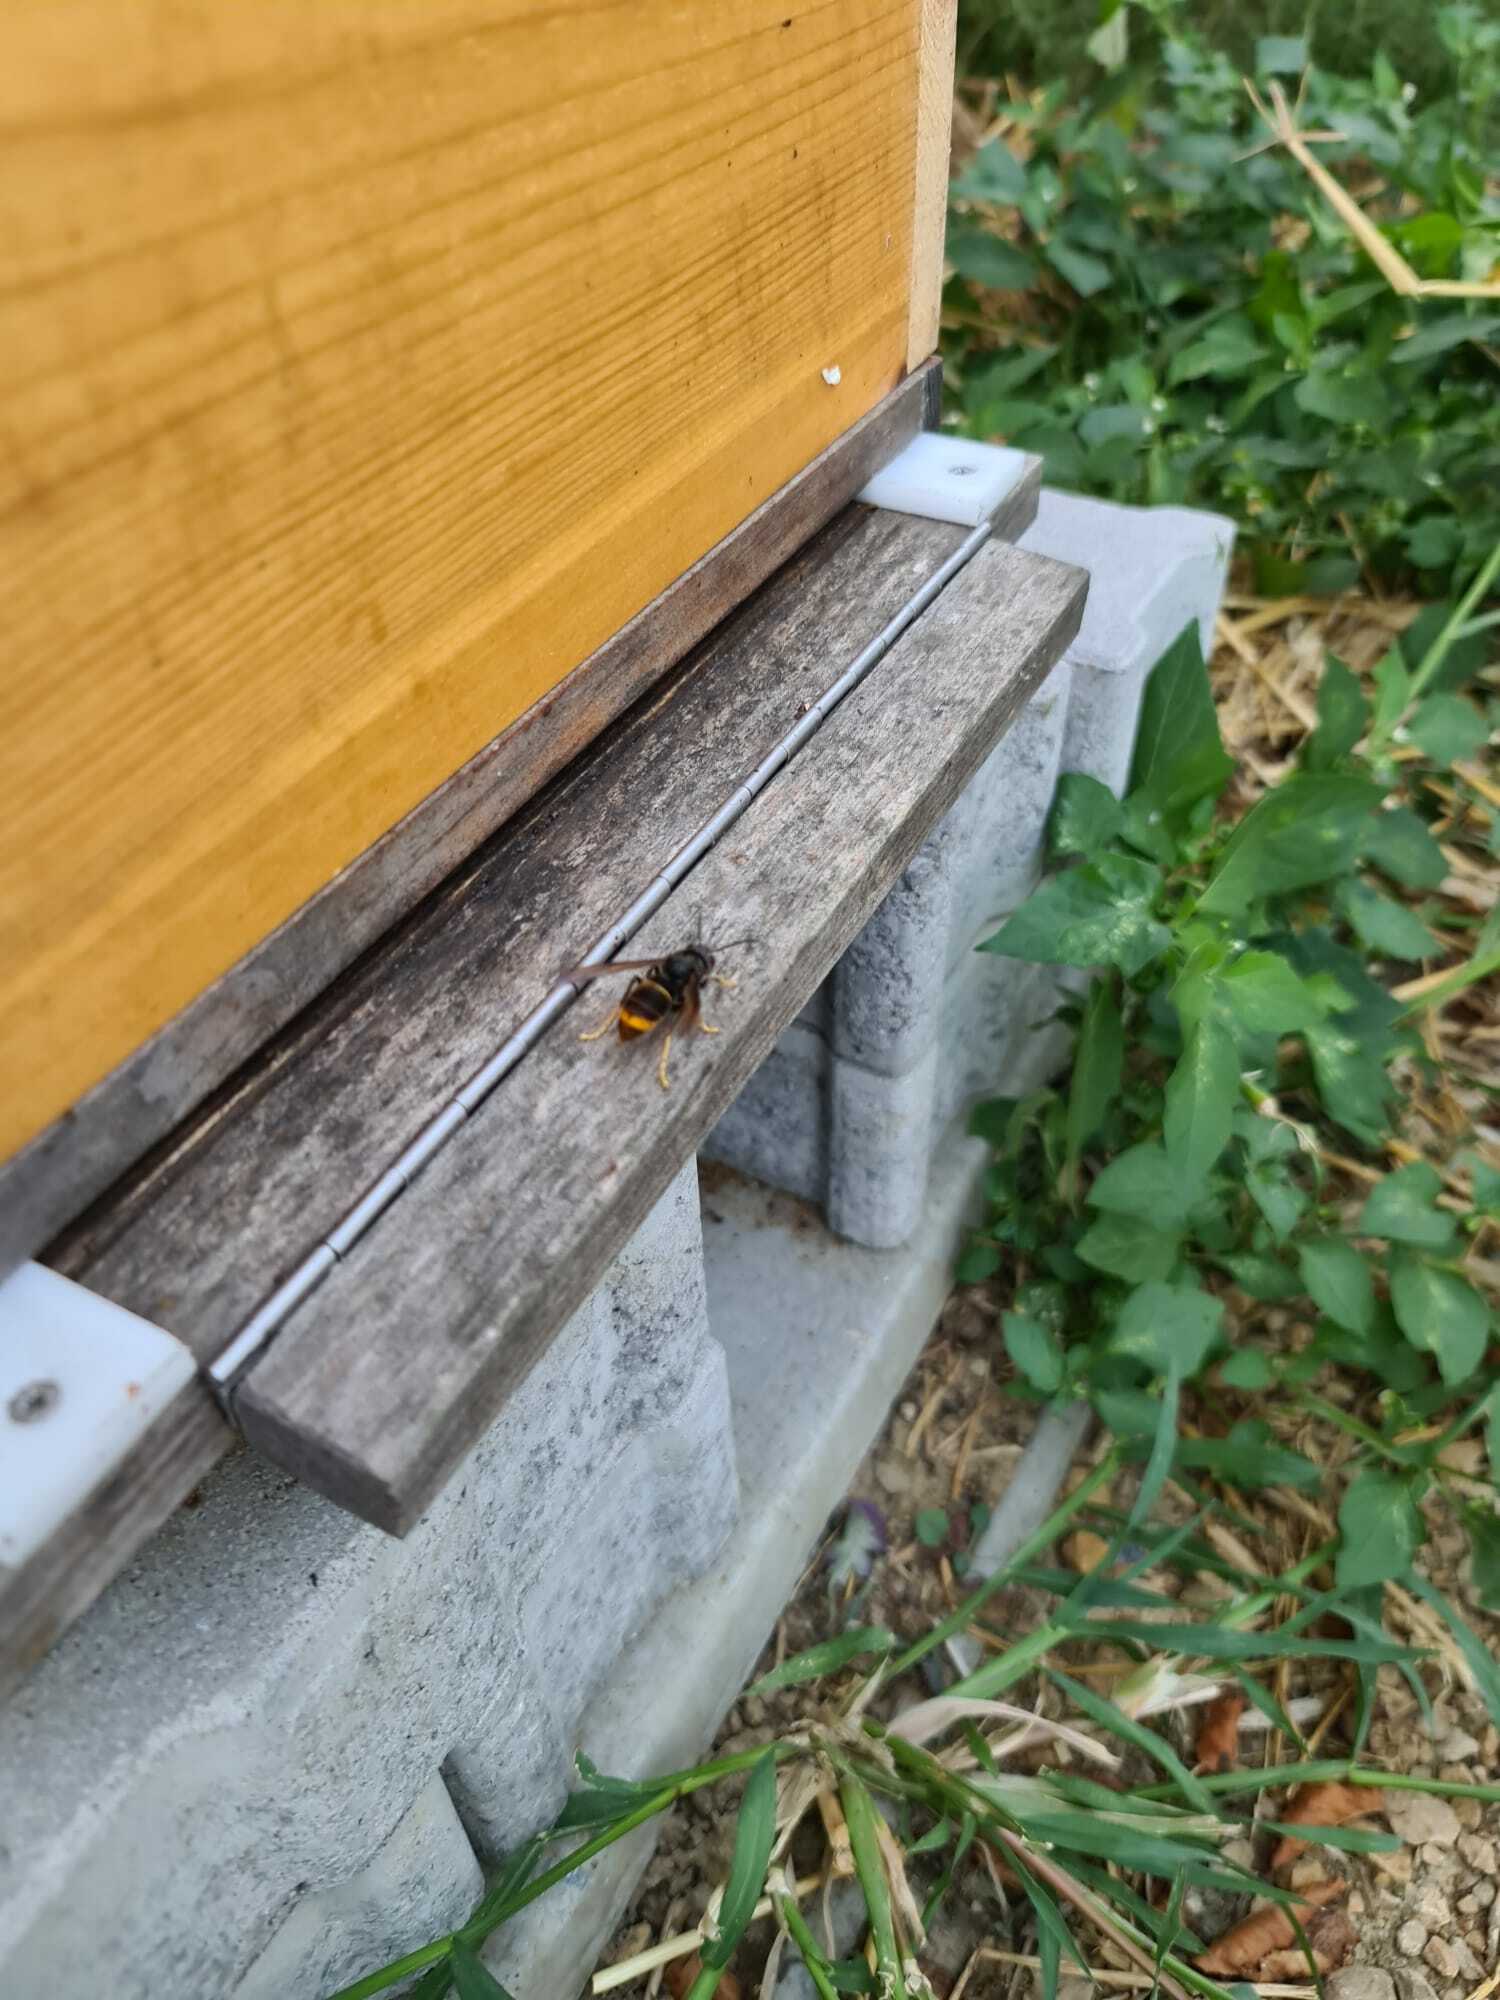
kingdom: Animalia
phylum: Arthropoda
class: Insecta
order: Hymenoptera
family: Vespidae
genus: Vespa
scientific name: Vespa velutina
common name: Asian hornet
